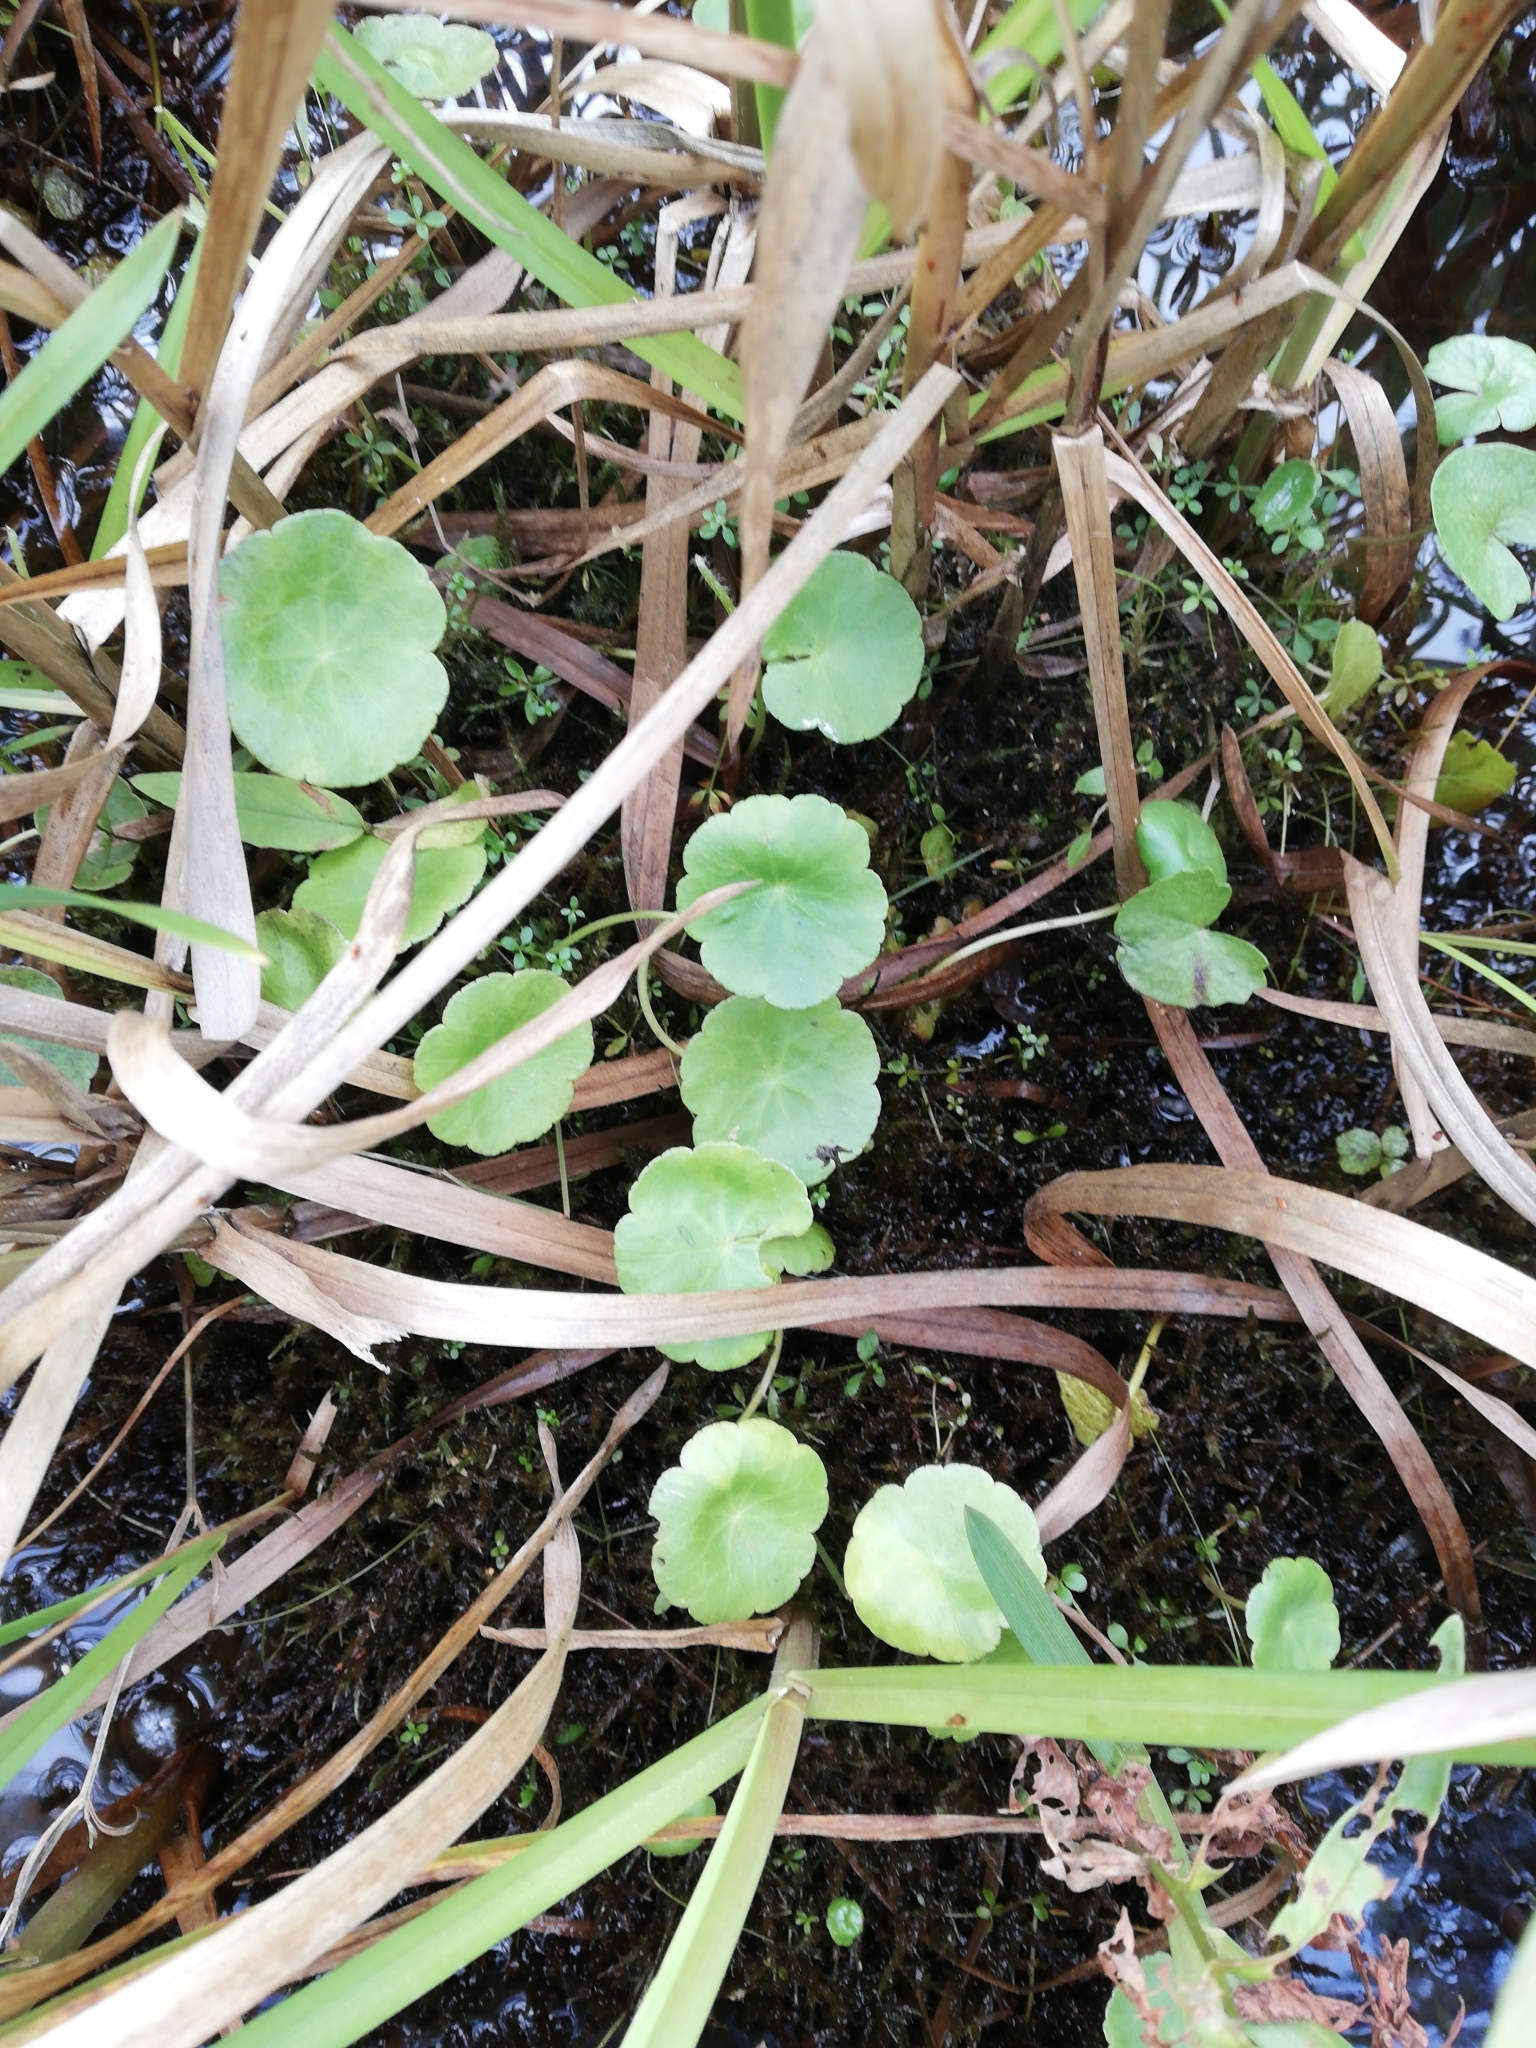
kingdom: Plantae
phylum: Tracheophyta
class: Magnoliopsida
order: Apiales
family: Araliaceae
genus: Hydrocotyle
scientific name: Hydrocotyle vulgaris
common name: Marsh pennywort
